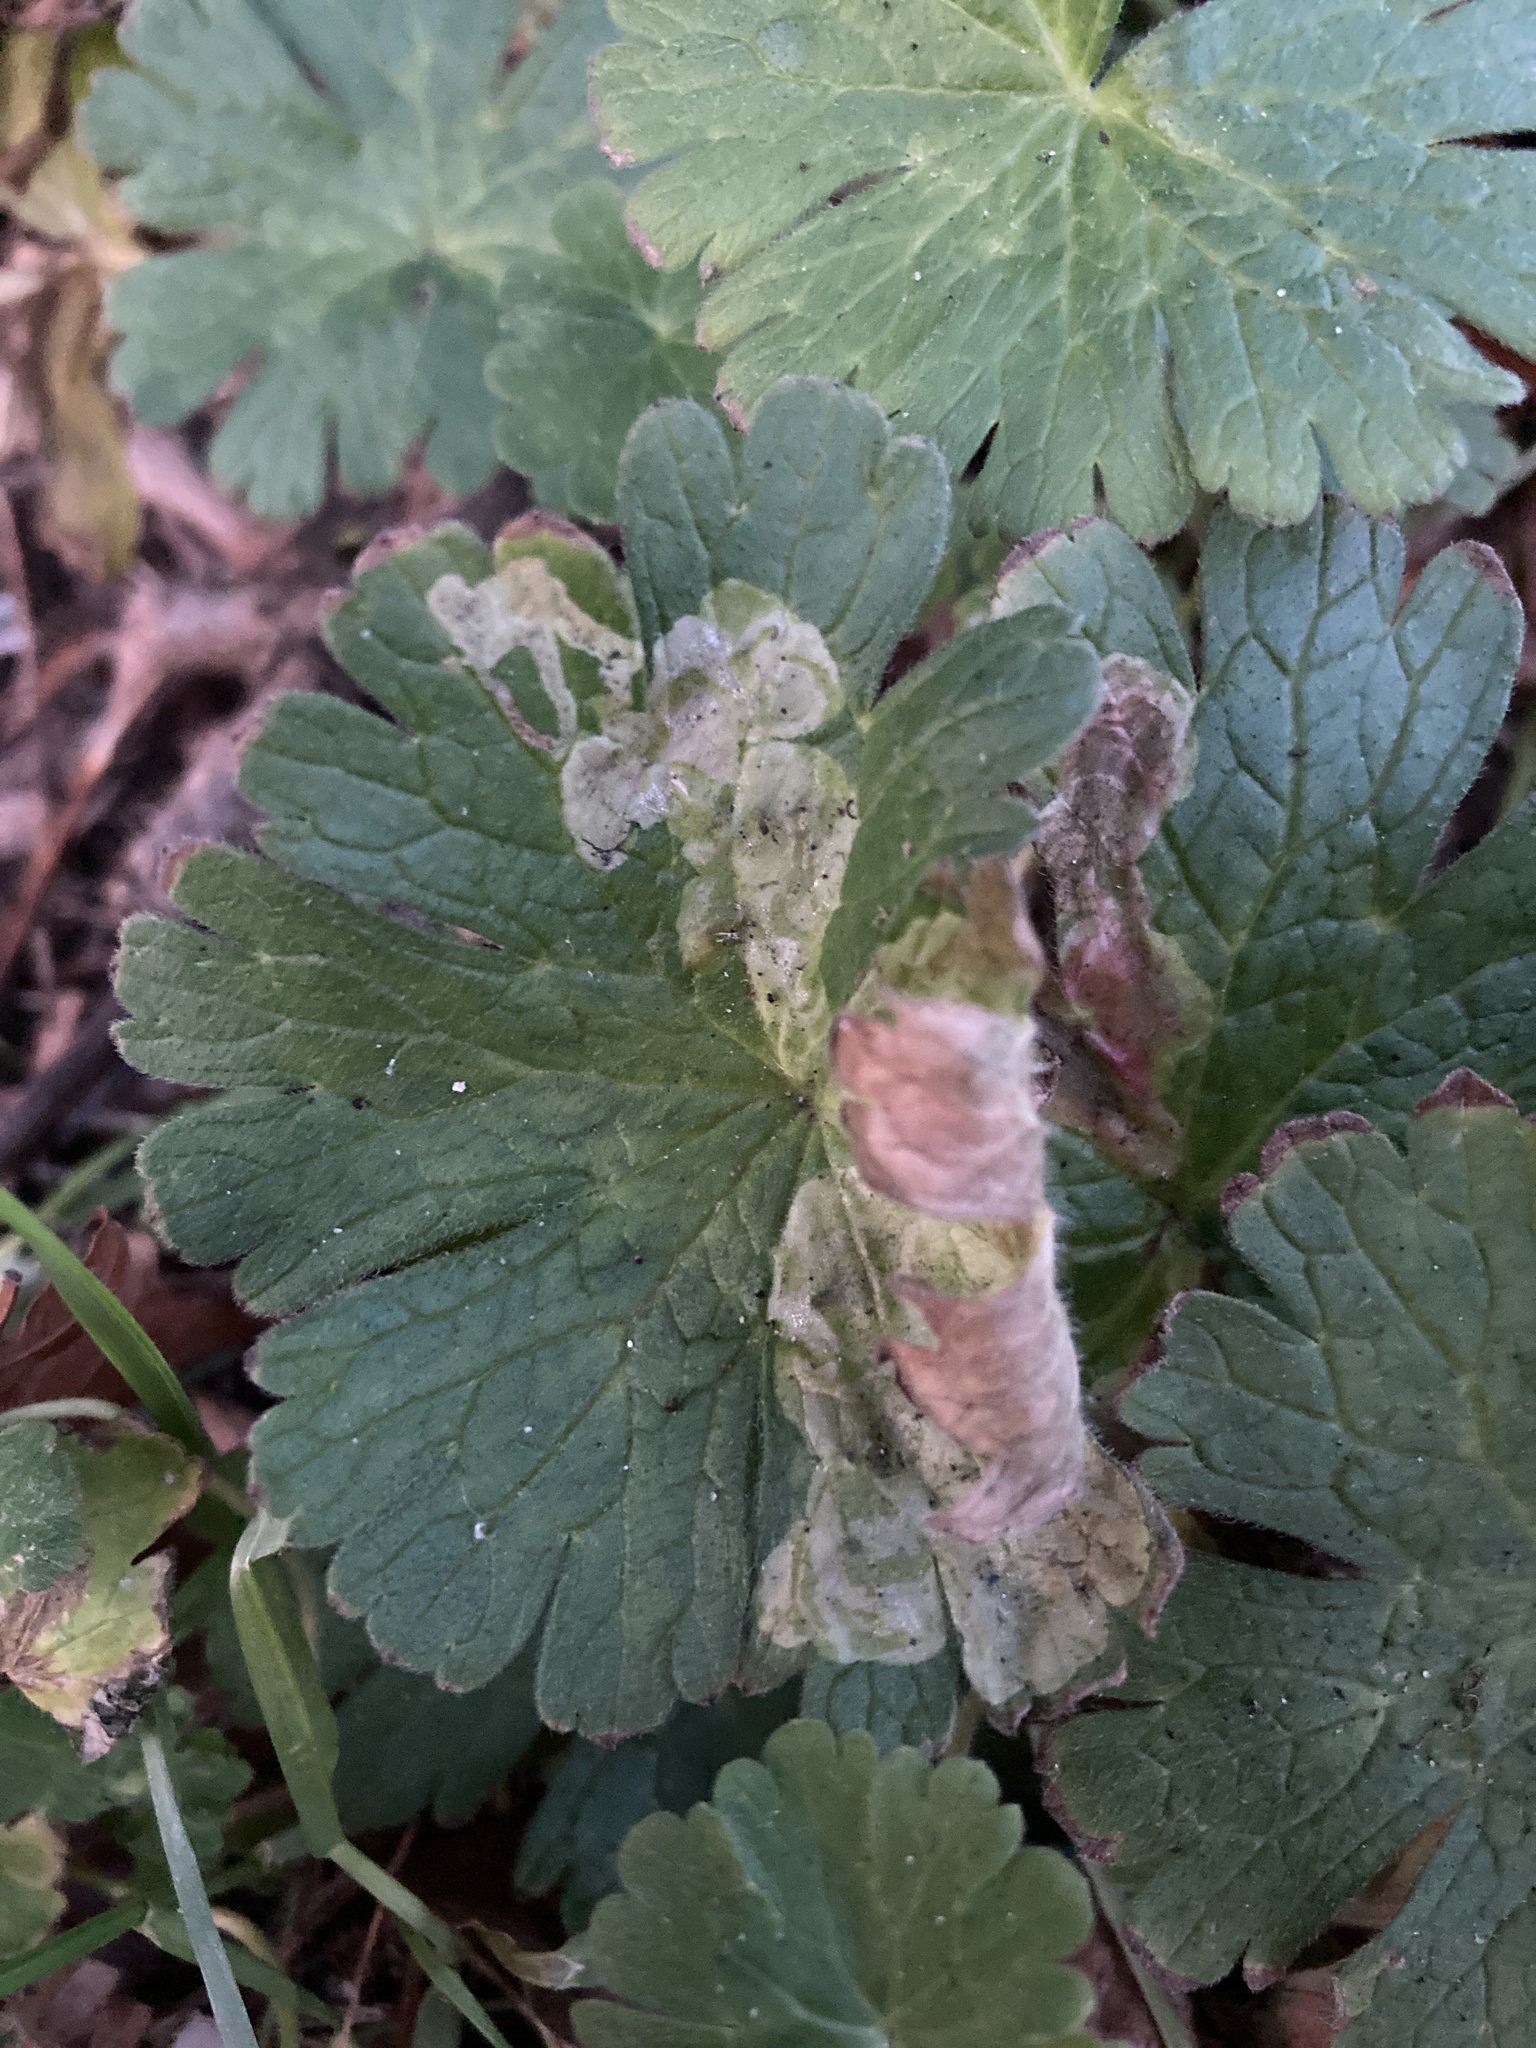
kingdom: Animalia
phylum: Arthropoda
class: Insecta
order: Diptera
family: Agromyzidae
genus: Agromyza
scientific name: Agromyza nigrescens
